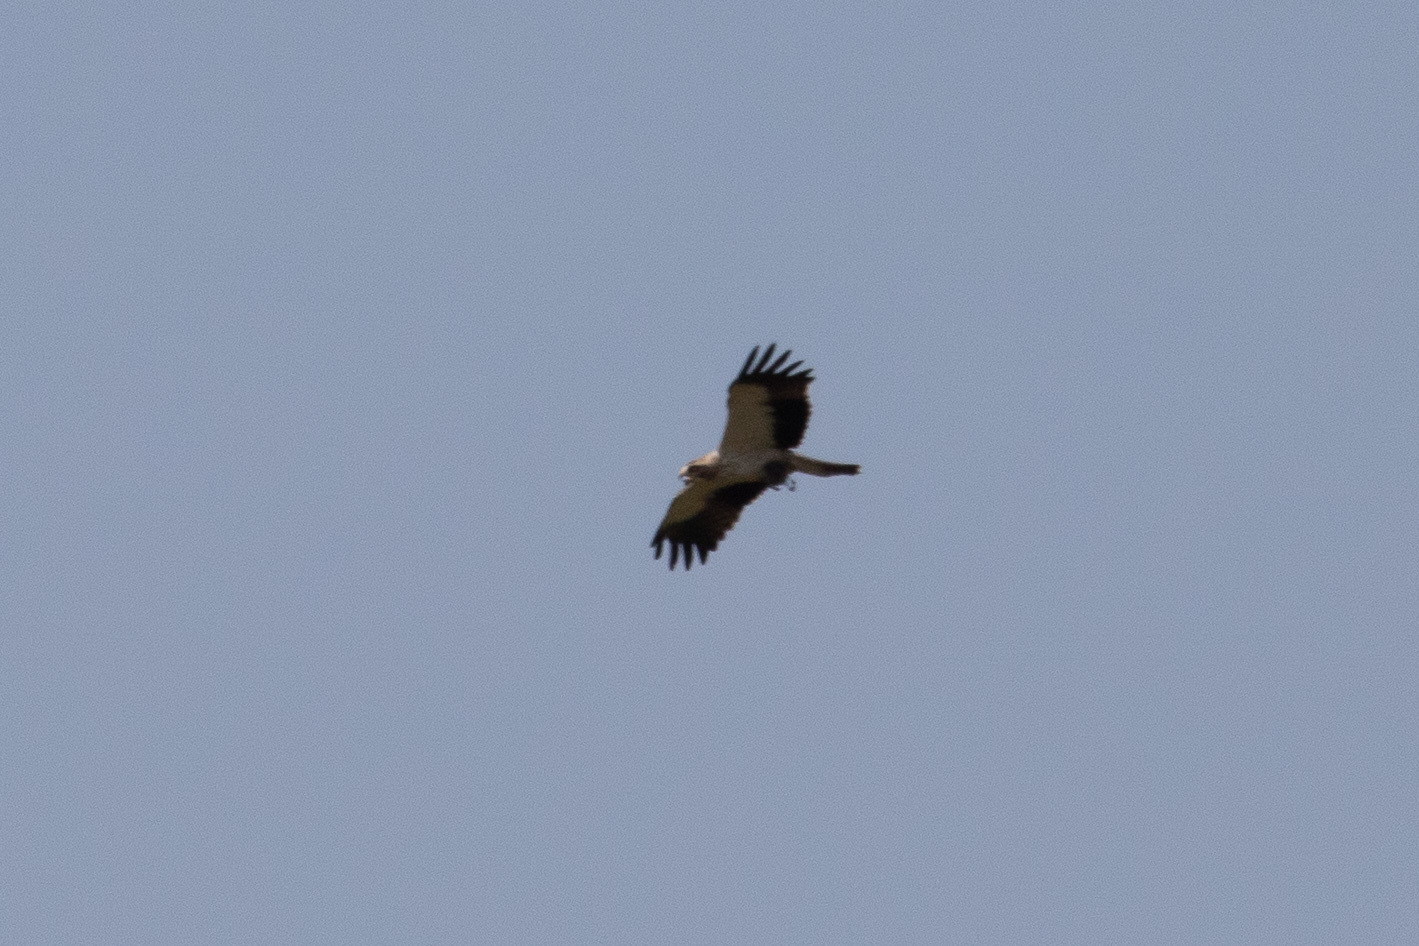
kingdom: Animalia
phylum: Chordata
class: Aves
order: Accipitriformes
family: Accipitridae
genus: Hieraaetus
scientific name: Hieraaetus pennatus
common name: Booted eagle
